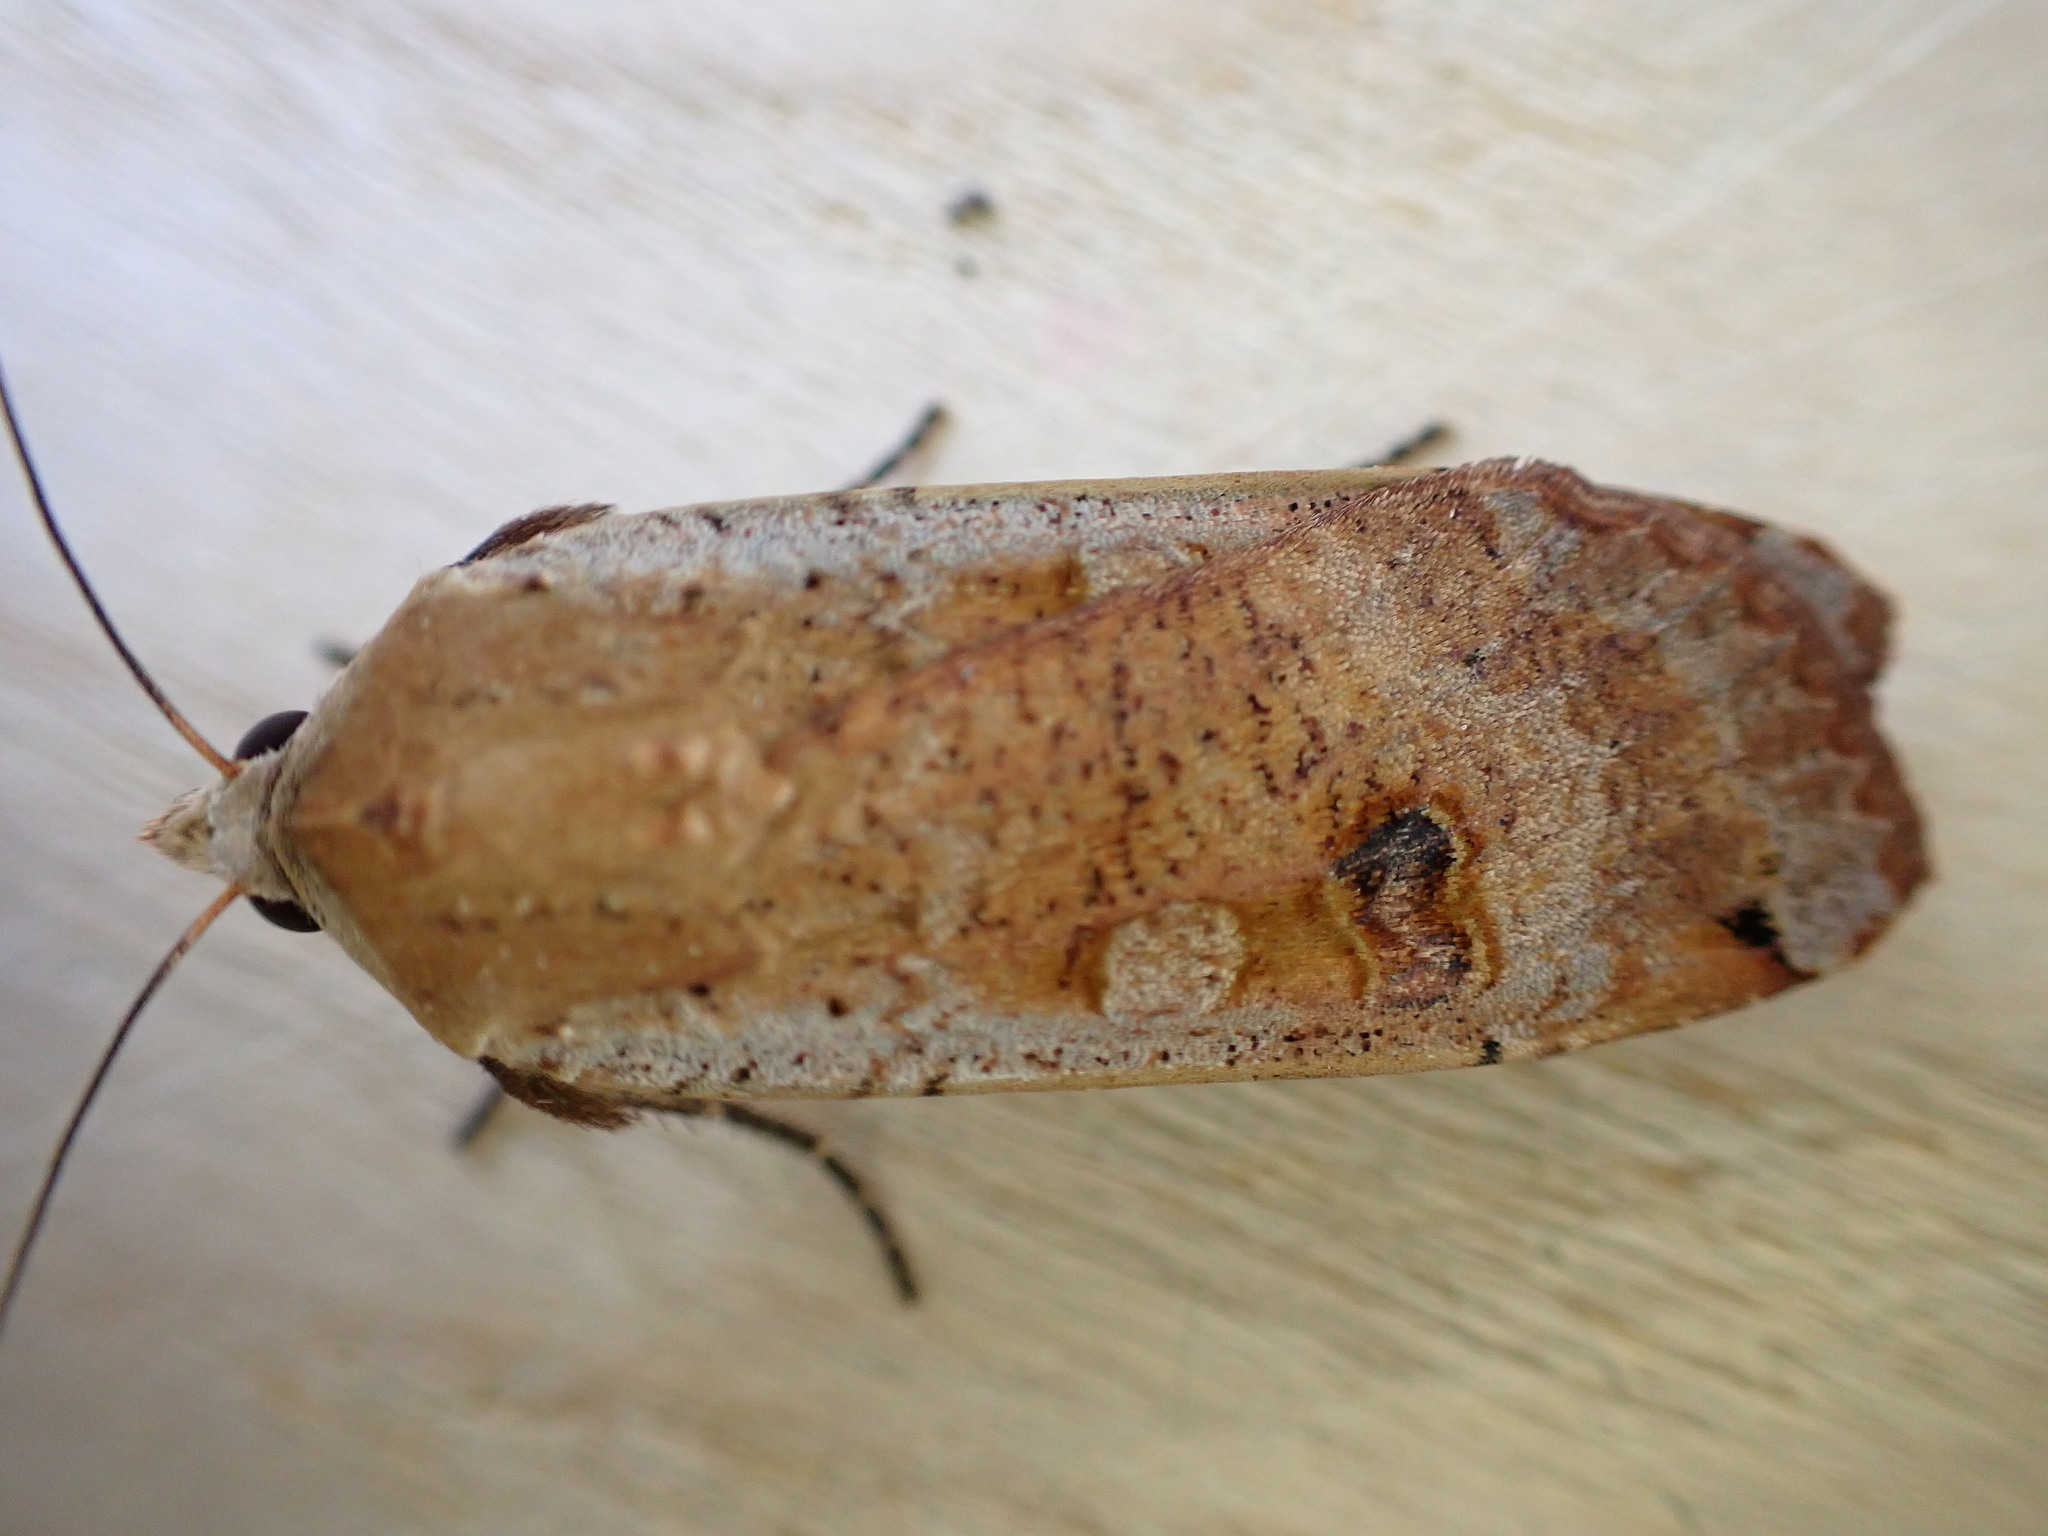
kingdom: Animalia
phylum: Arthropoda
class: Insecta
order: Lepidoptera
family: Noctuidae
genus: Noctua
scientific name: Noctua pronuba
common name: Large yellow underwing
